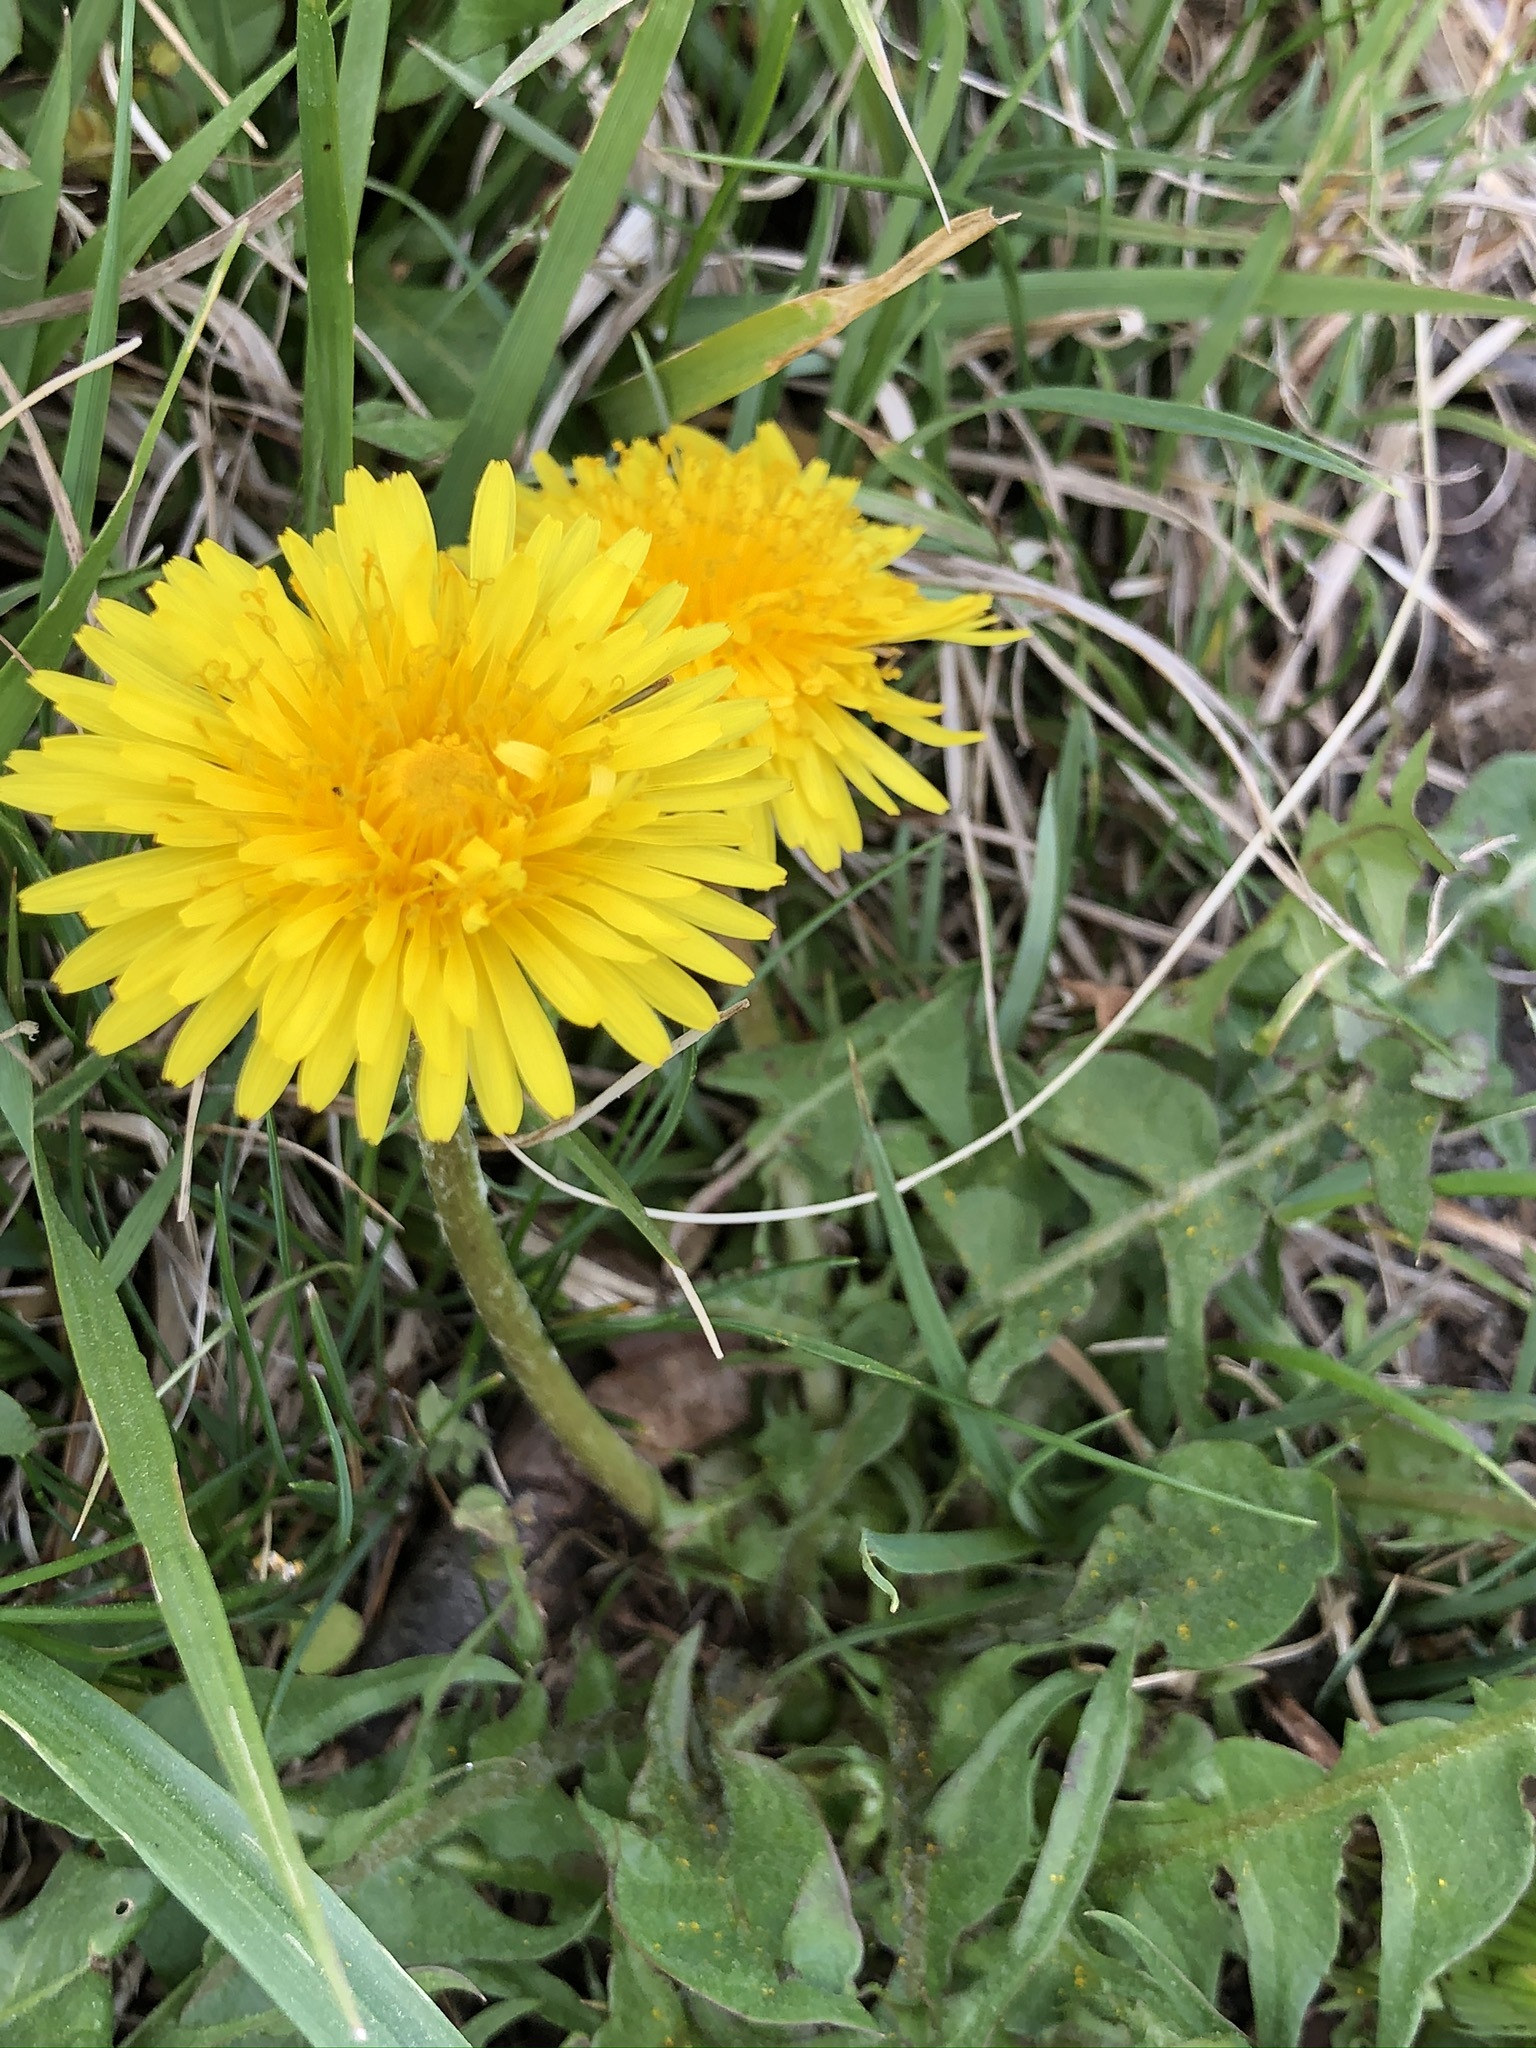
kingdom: Plantae
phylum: Tracheophyta
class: Magnoliopsida
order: Asterales
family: Asteraceae
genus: Taraxacum
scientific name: Taraxacum officinale
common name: Common dandelion
